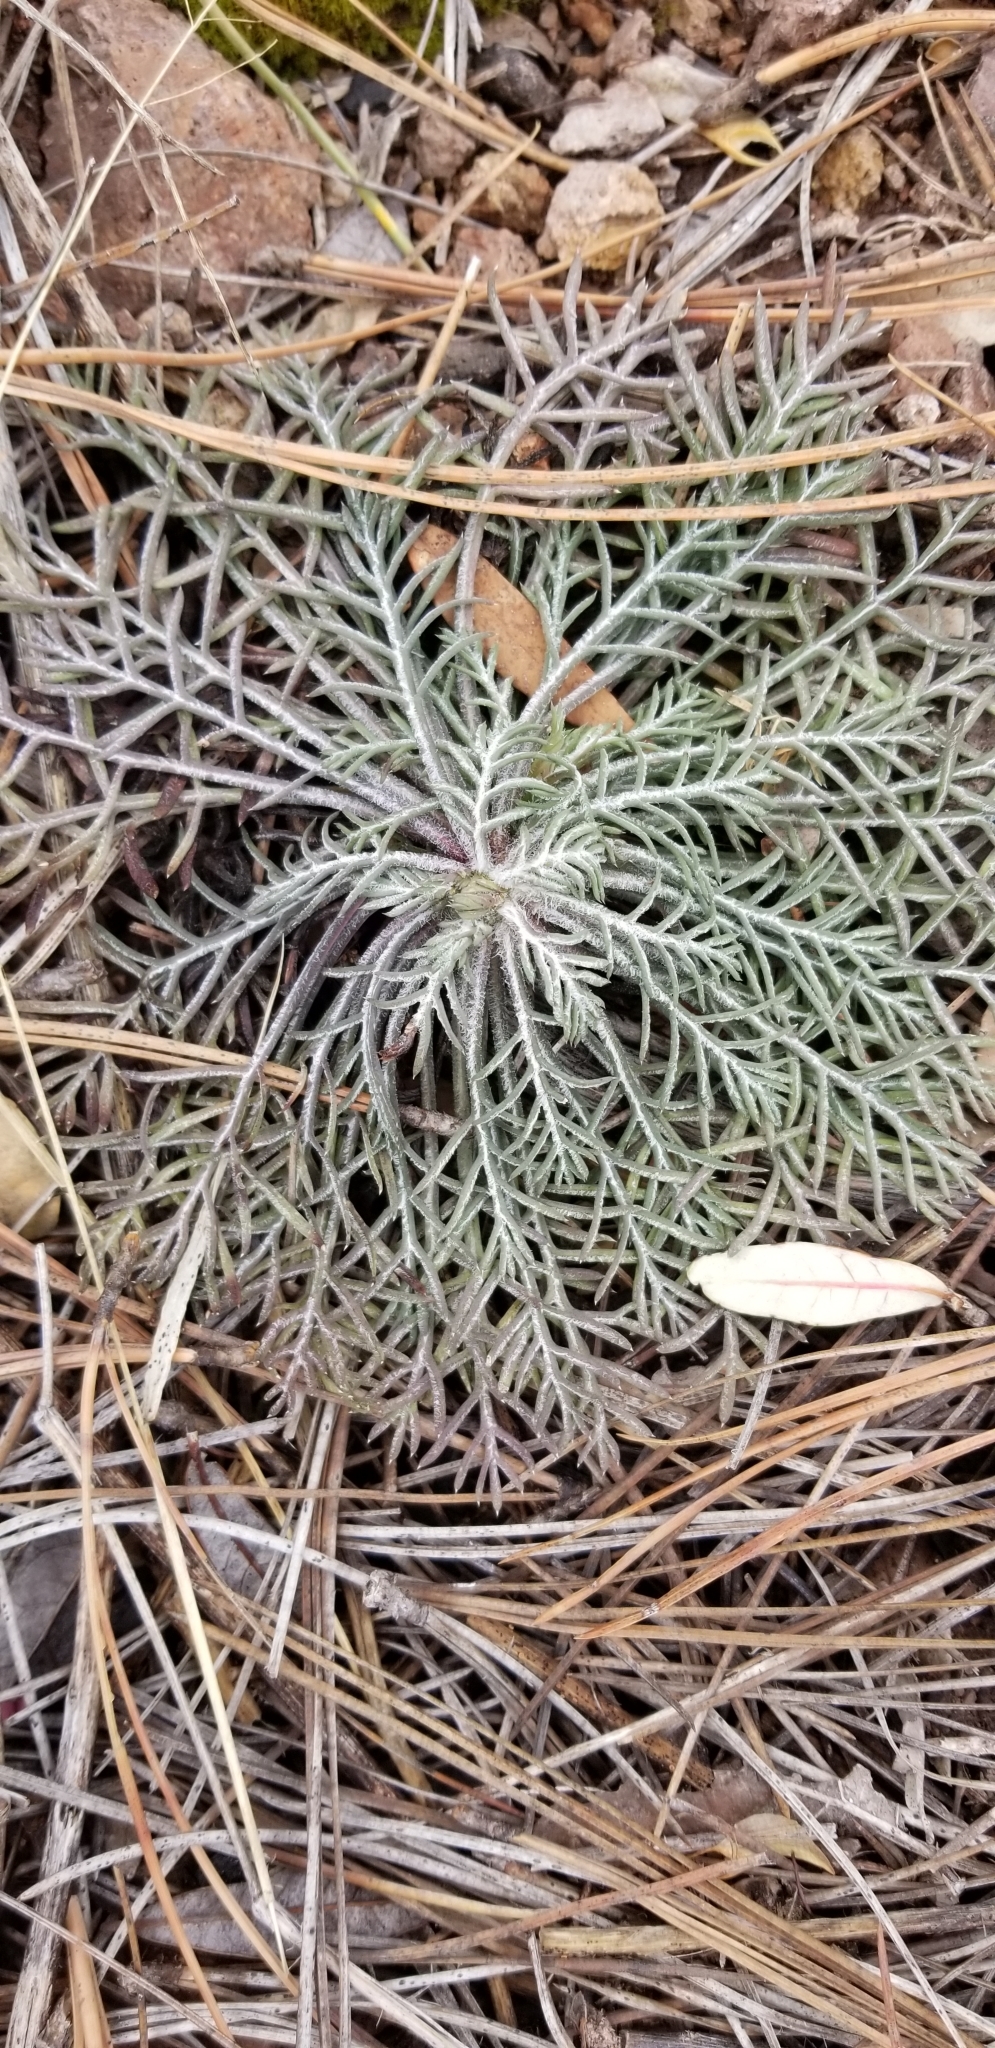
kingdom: Plantae
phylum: Tracheophyta
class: Magnoliopsida
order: Ericales
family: Polemoniaceae
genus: Ipomopsis
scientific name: Ipomopsis aggregata
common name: Scarlet gilia
